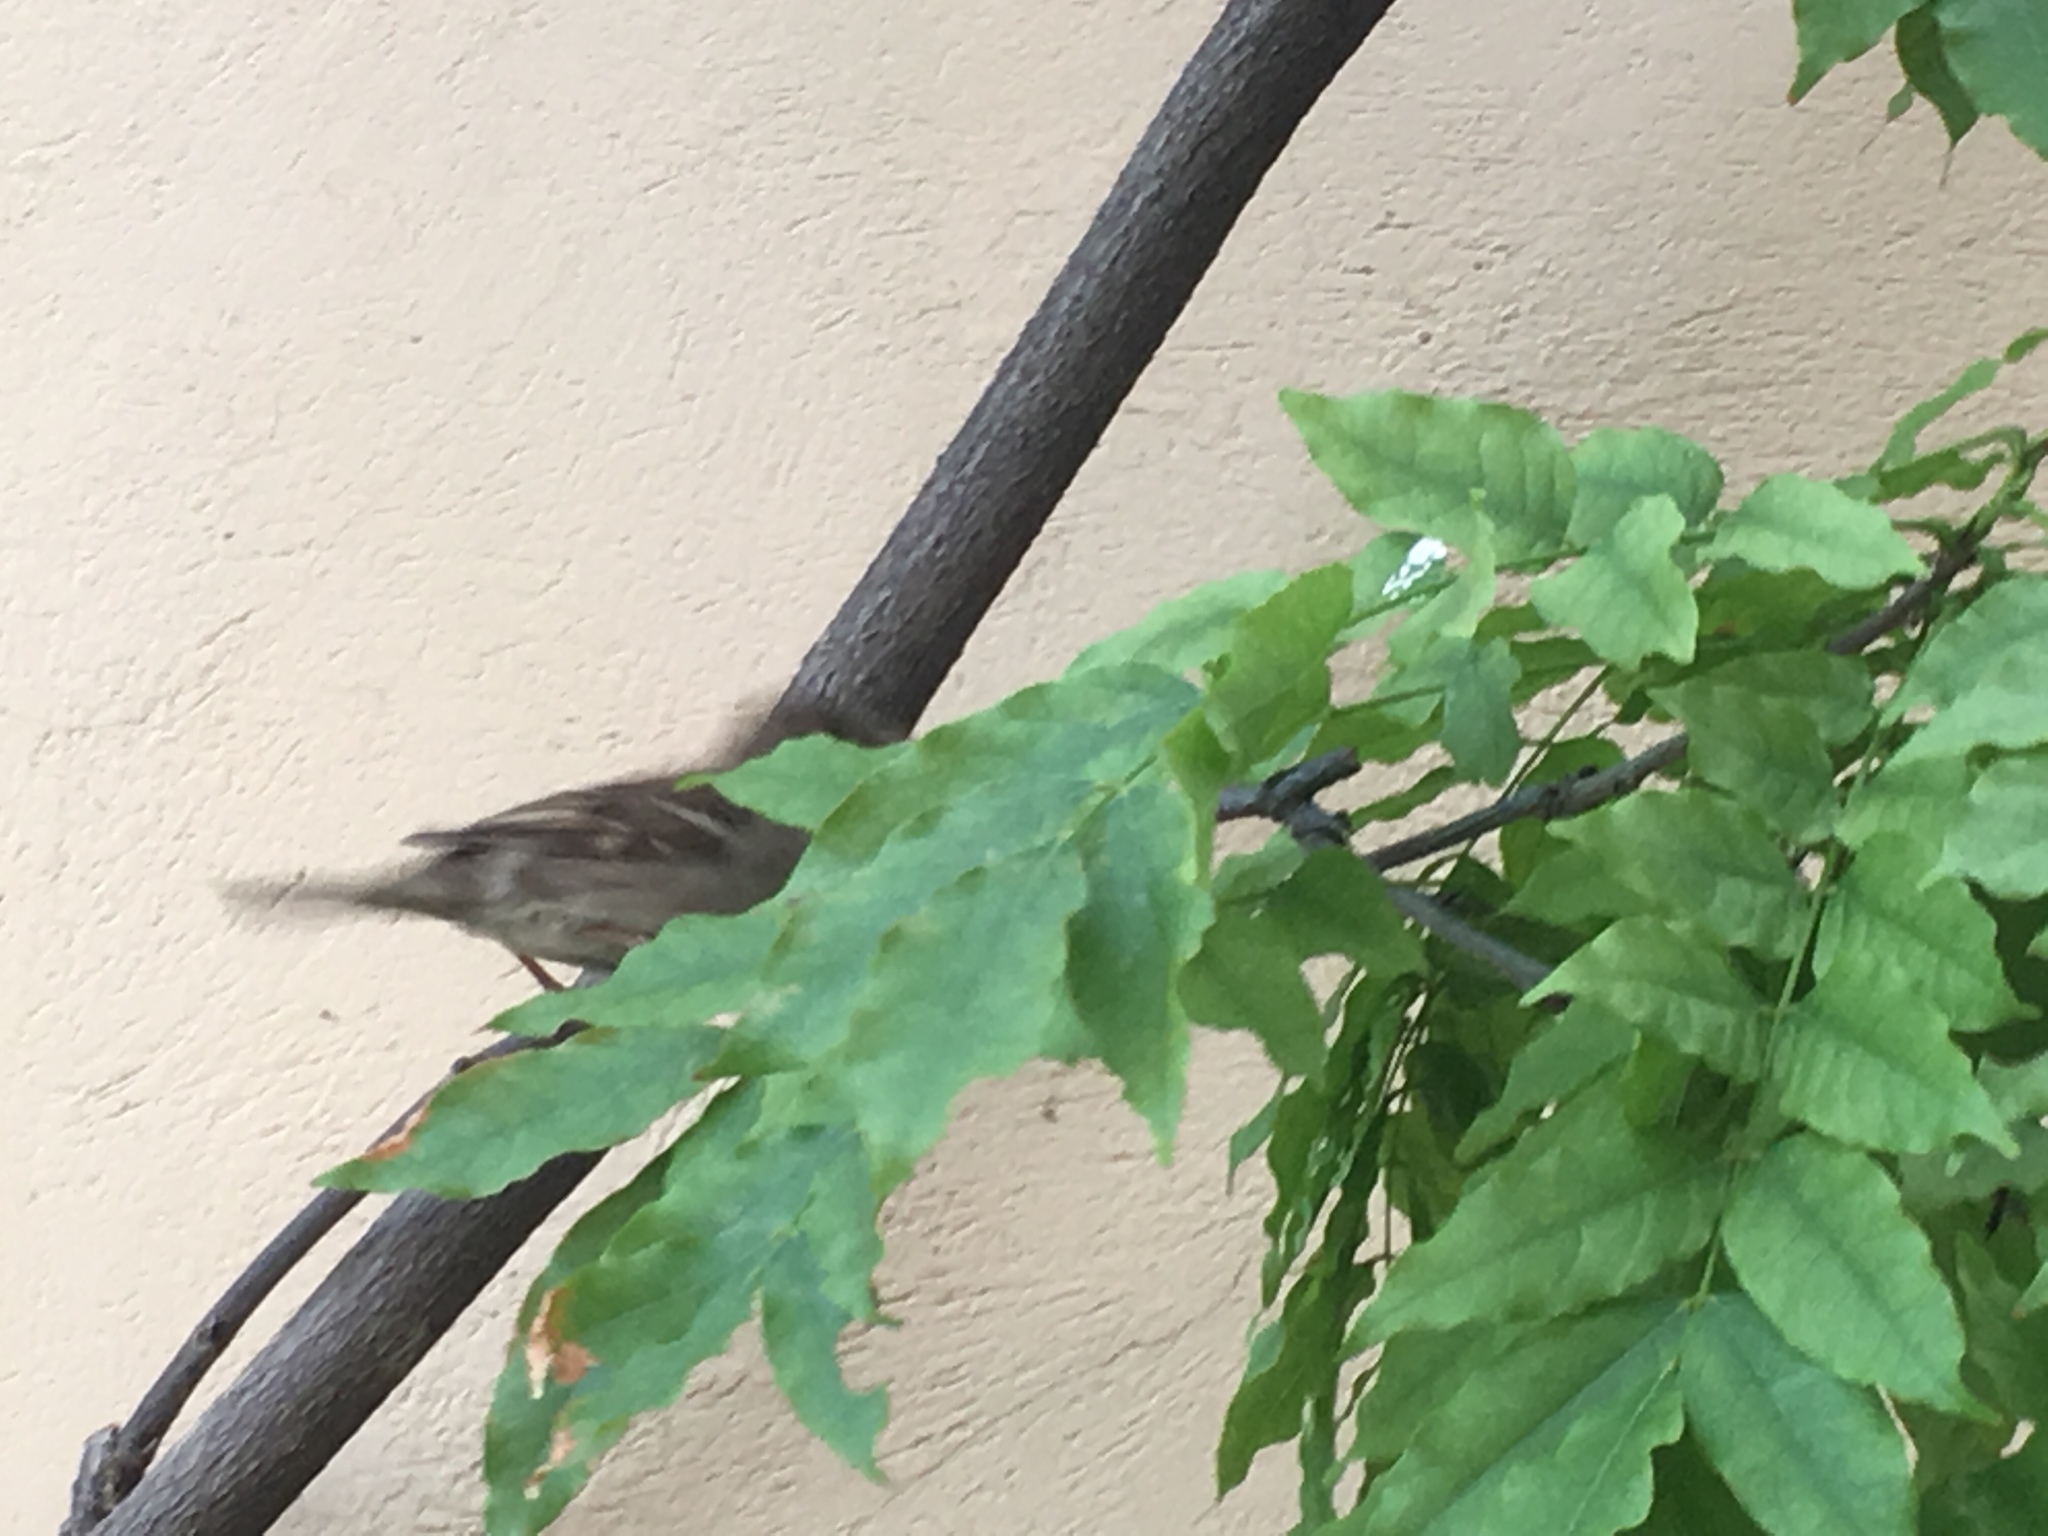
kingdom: Animalia
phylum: Chordata
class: Aves
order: Passeriformes
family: Passeridae
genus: Passer
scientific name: Passer italiae
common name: Italian sparrow
